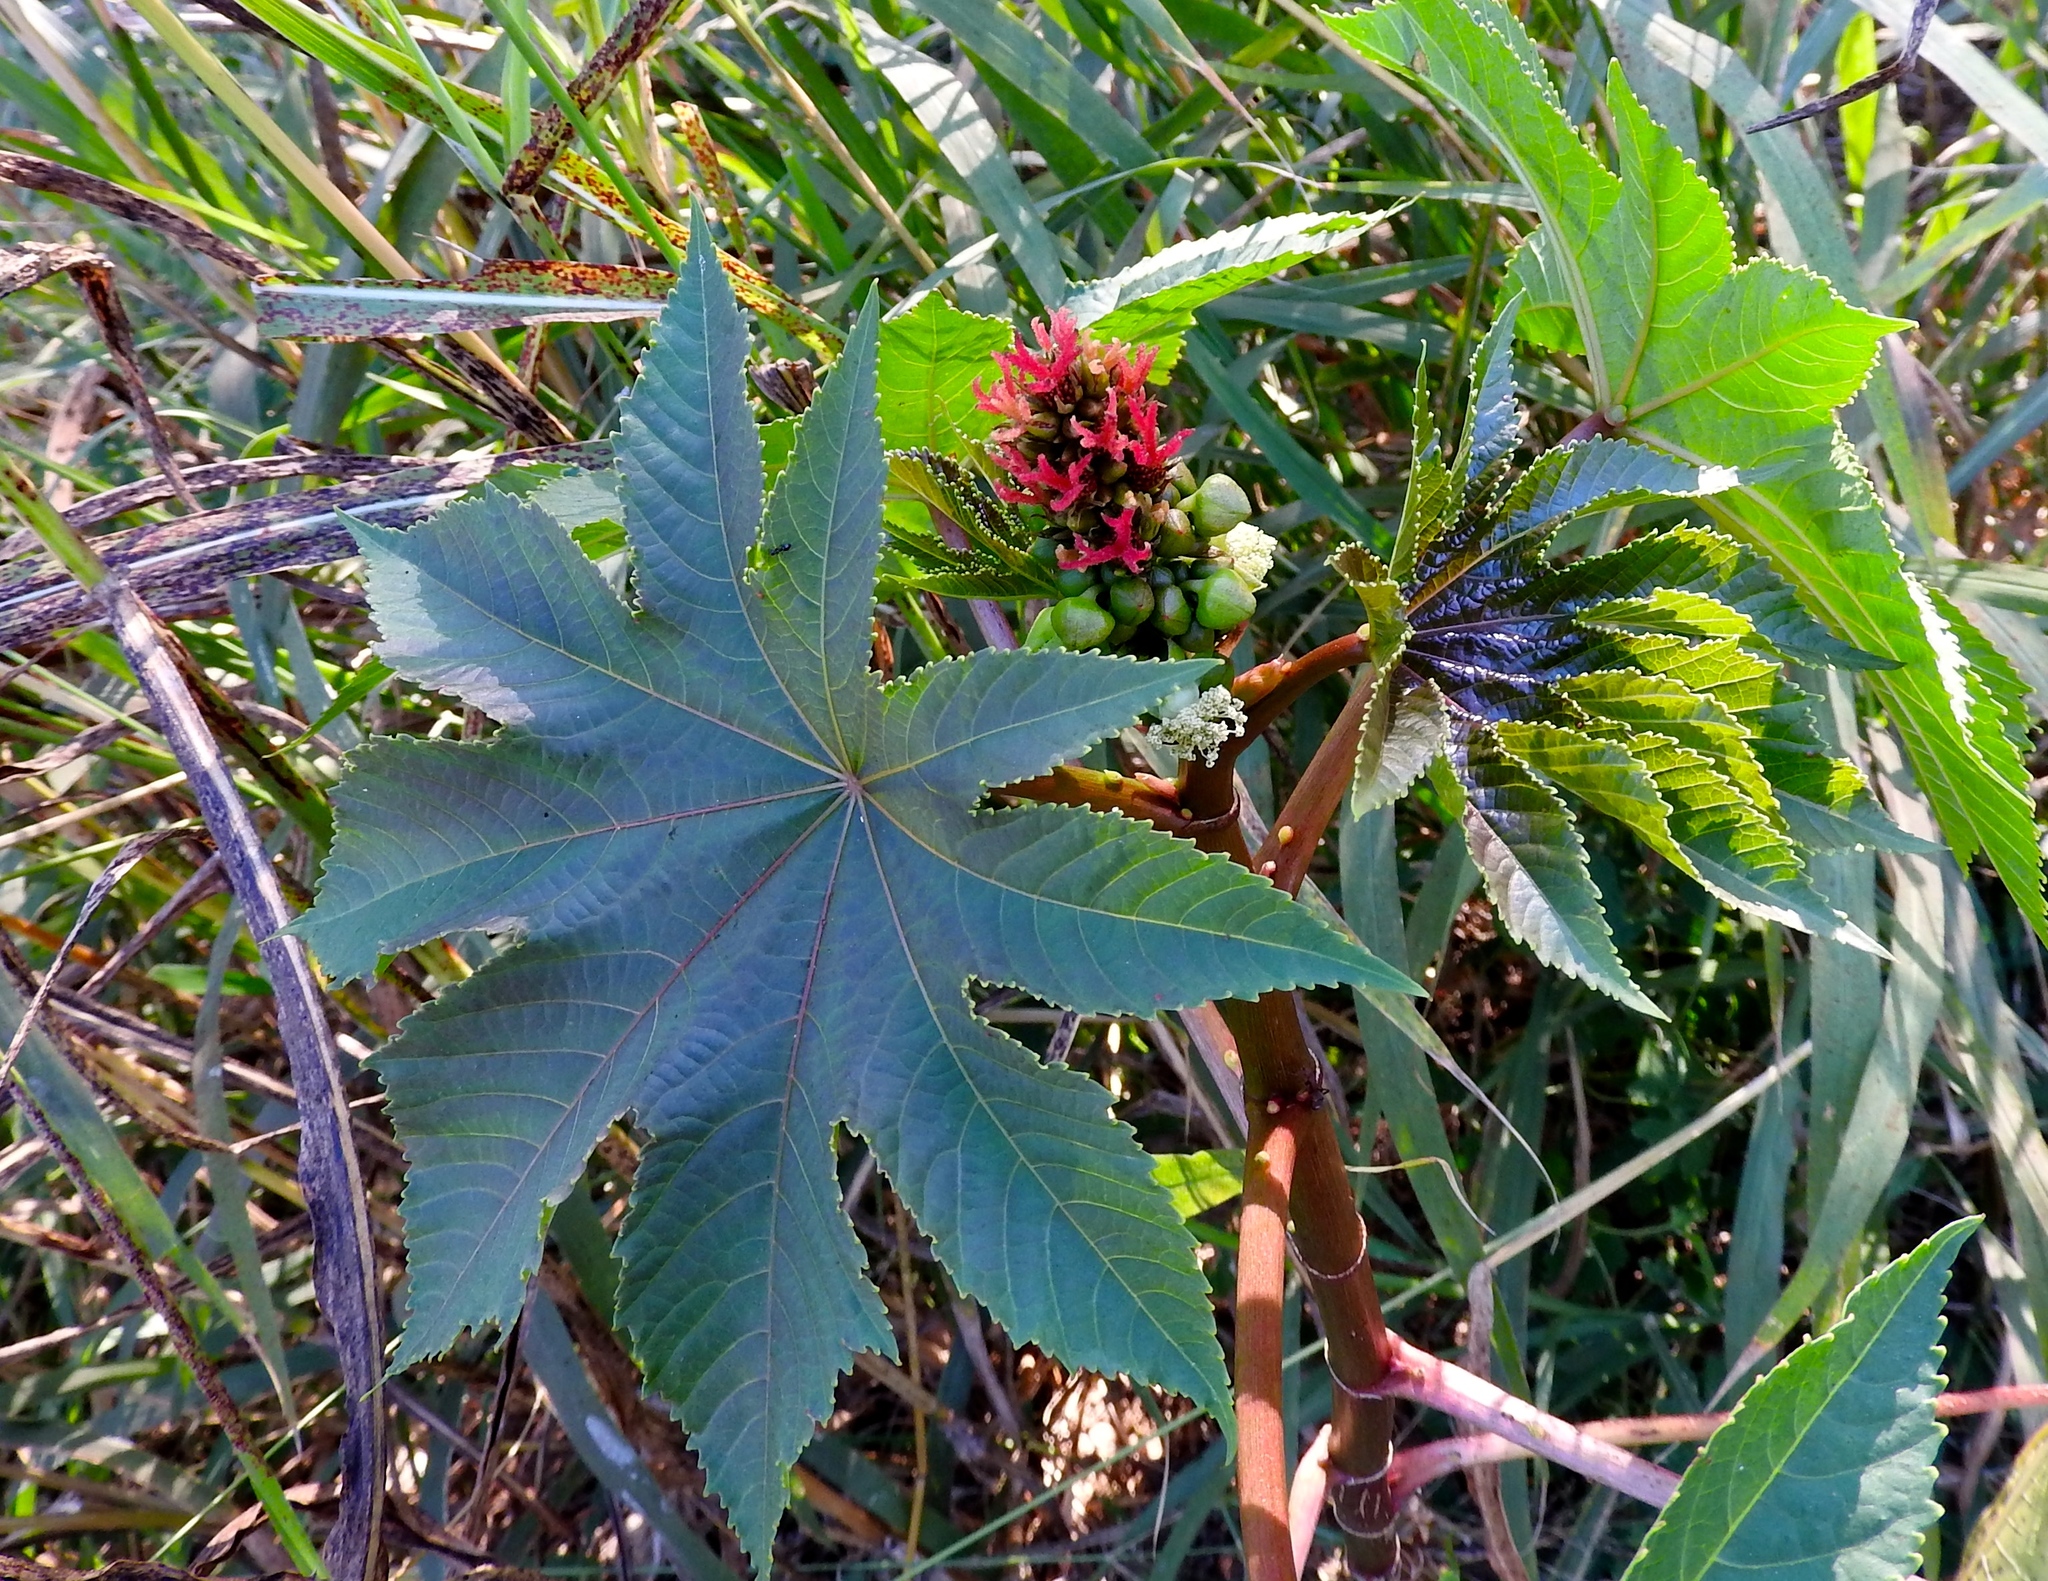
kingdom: Plantae
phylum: Tracheophyta
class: Magnoliopsida
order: Malpighiales
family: Euphorbiaceae
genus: Ricinus
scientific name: Ricinus communis
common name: Castor-oil-plant
